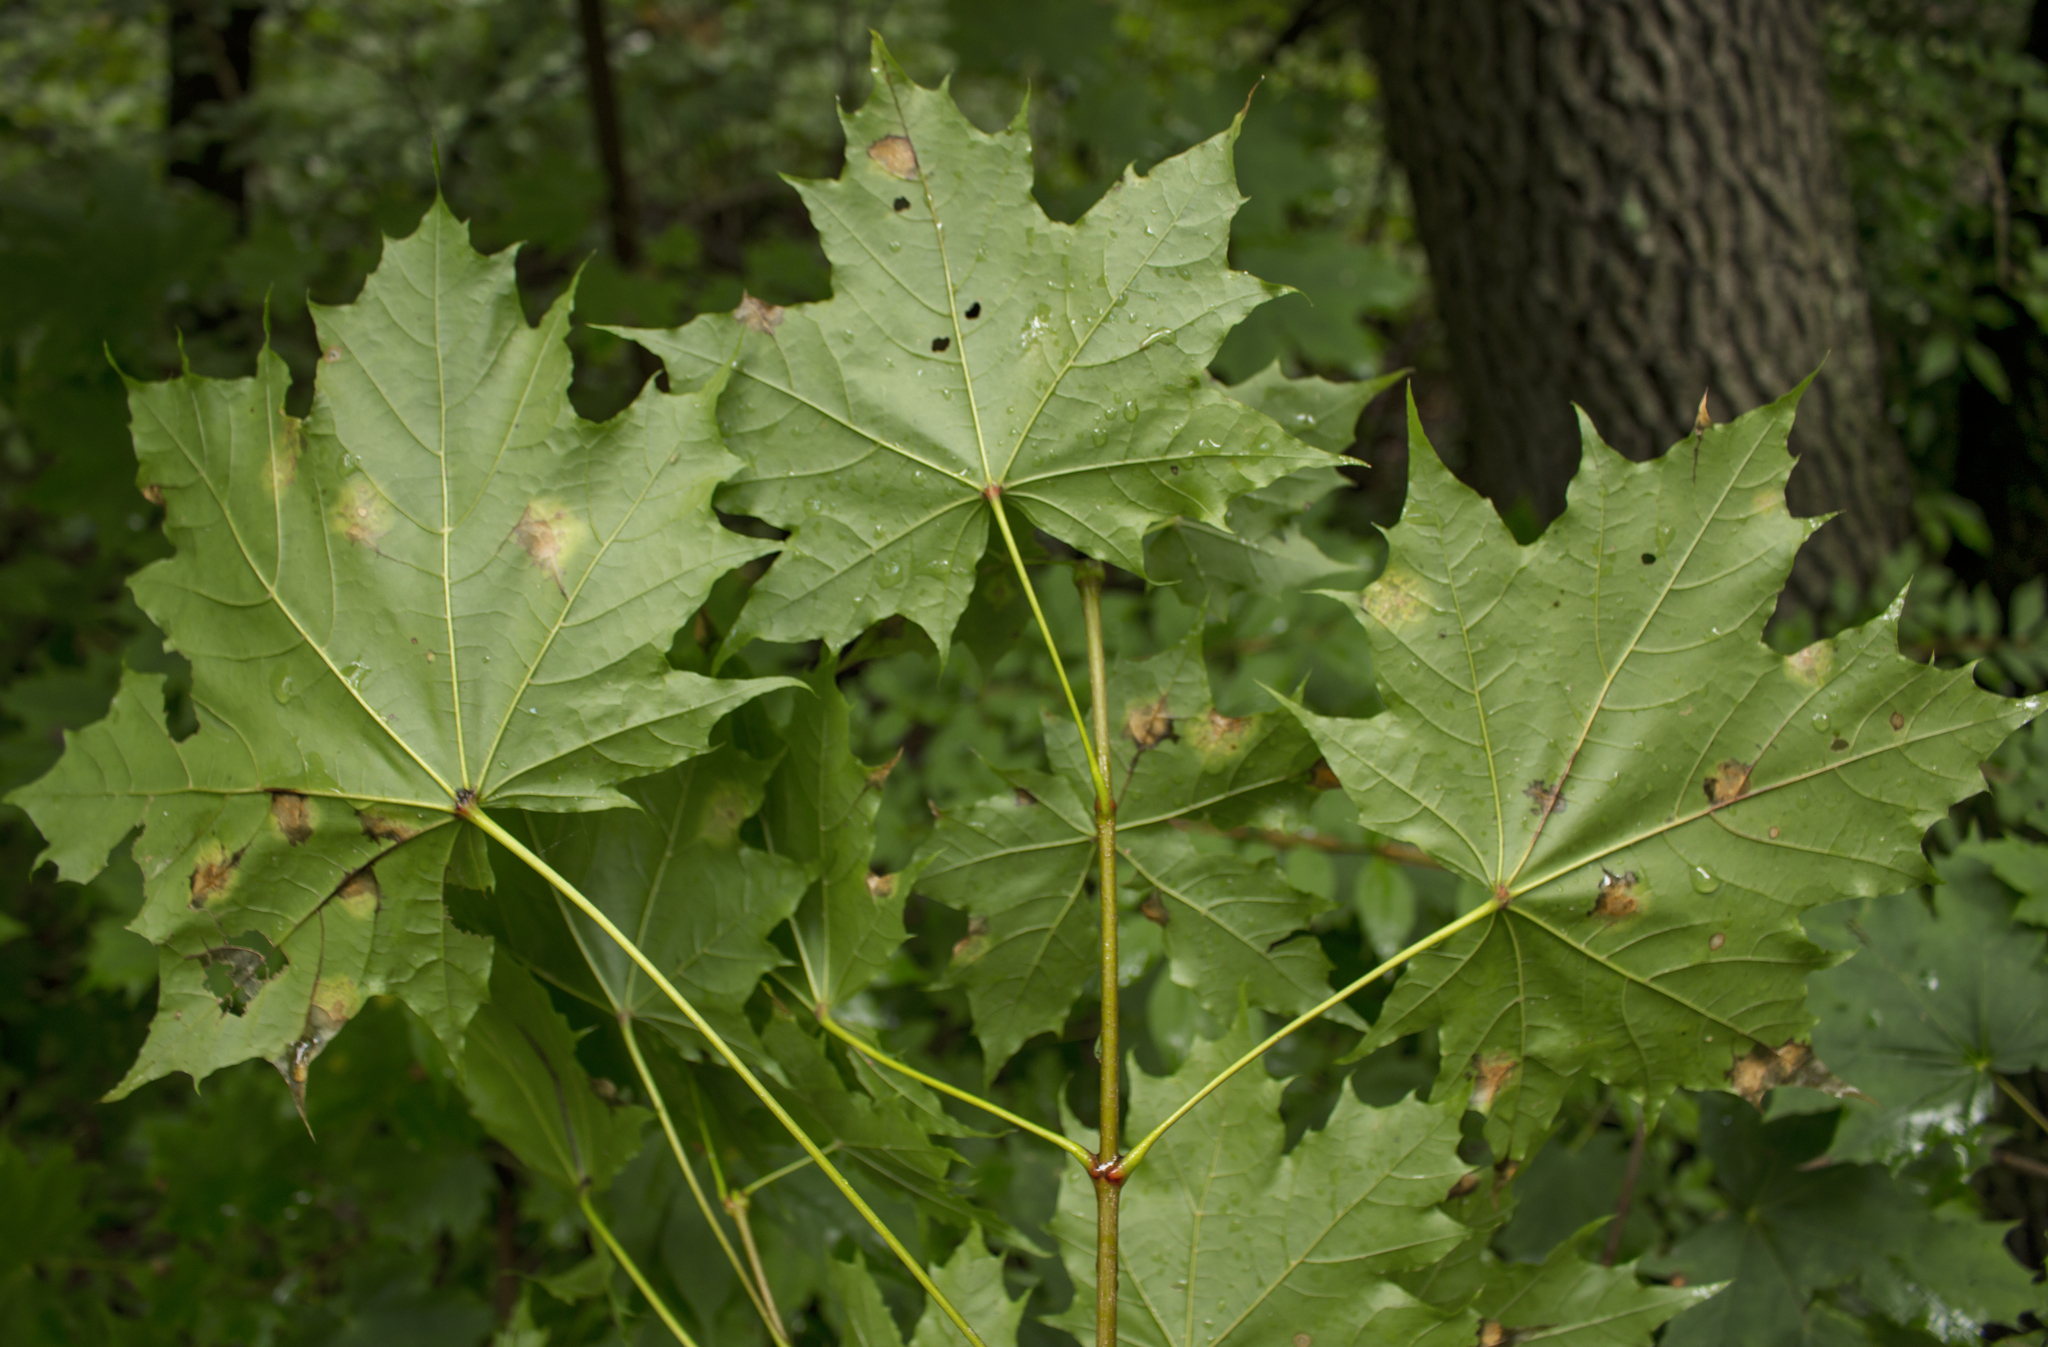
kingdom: Plantae
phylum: Tracheophyta
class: Magnoliopsida
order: Sapindales
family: Sapindaceae
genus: Acer
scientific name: Acer platanoides
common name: Norway maple
